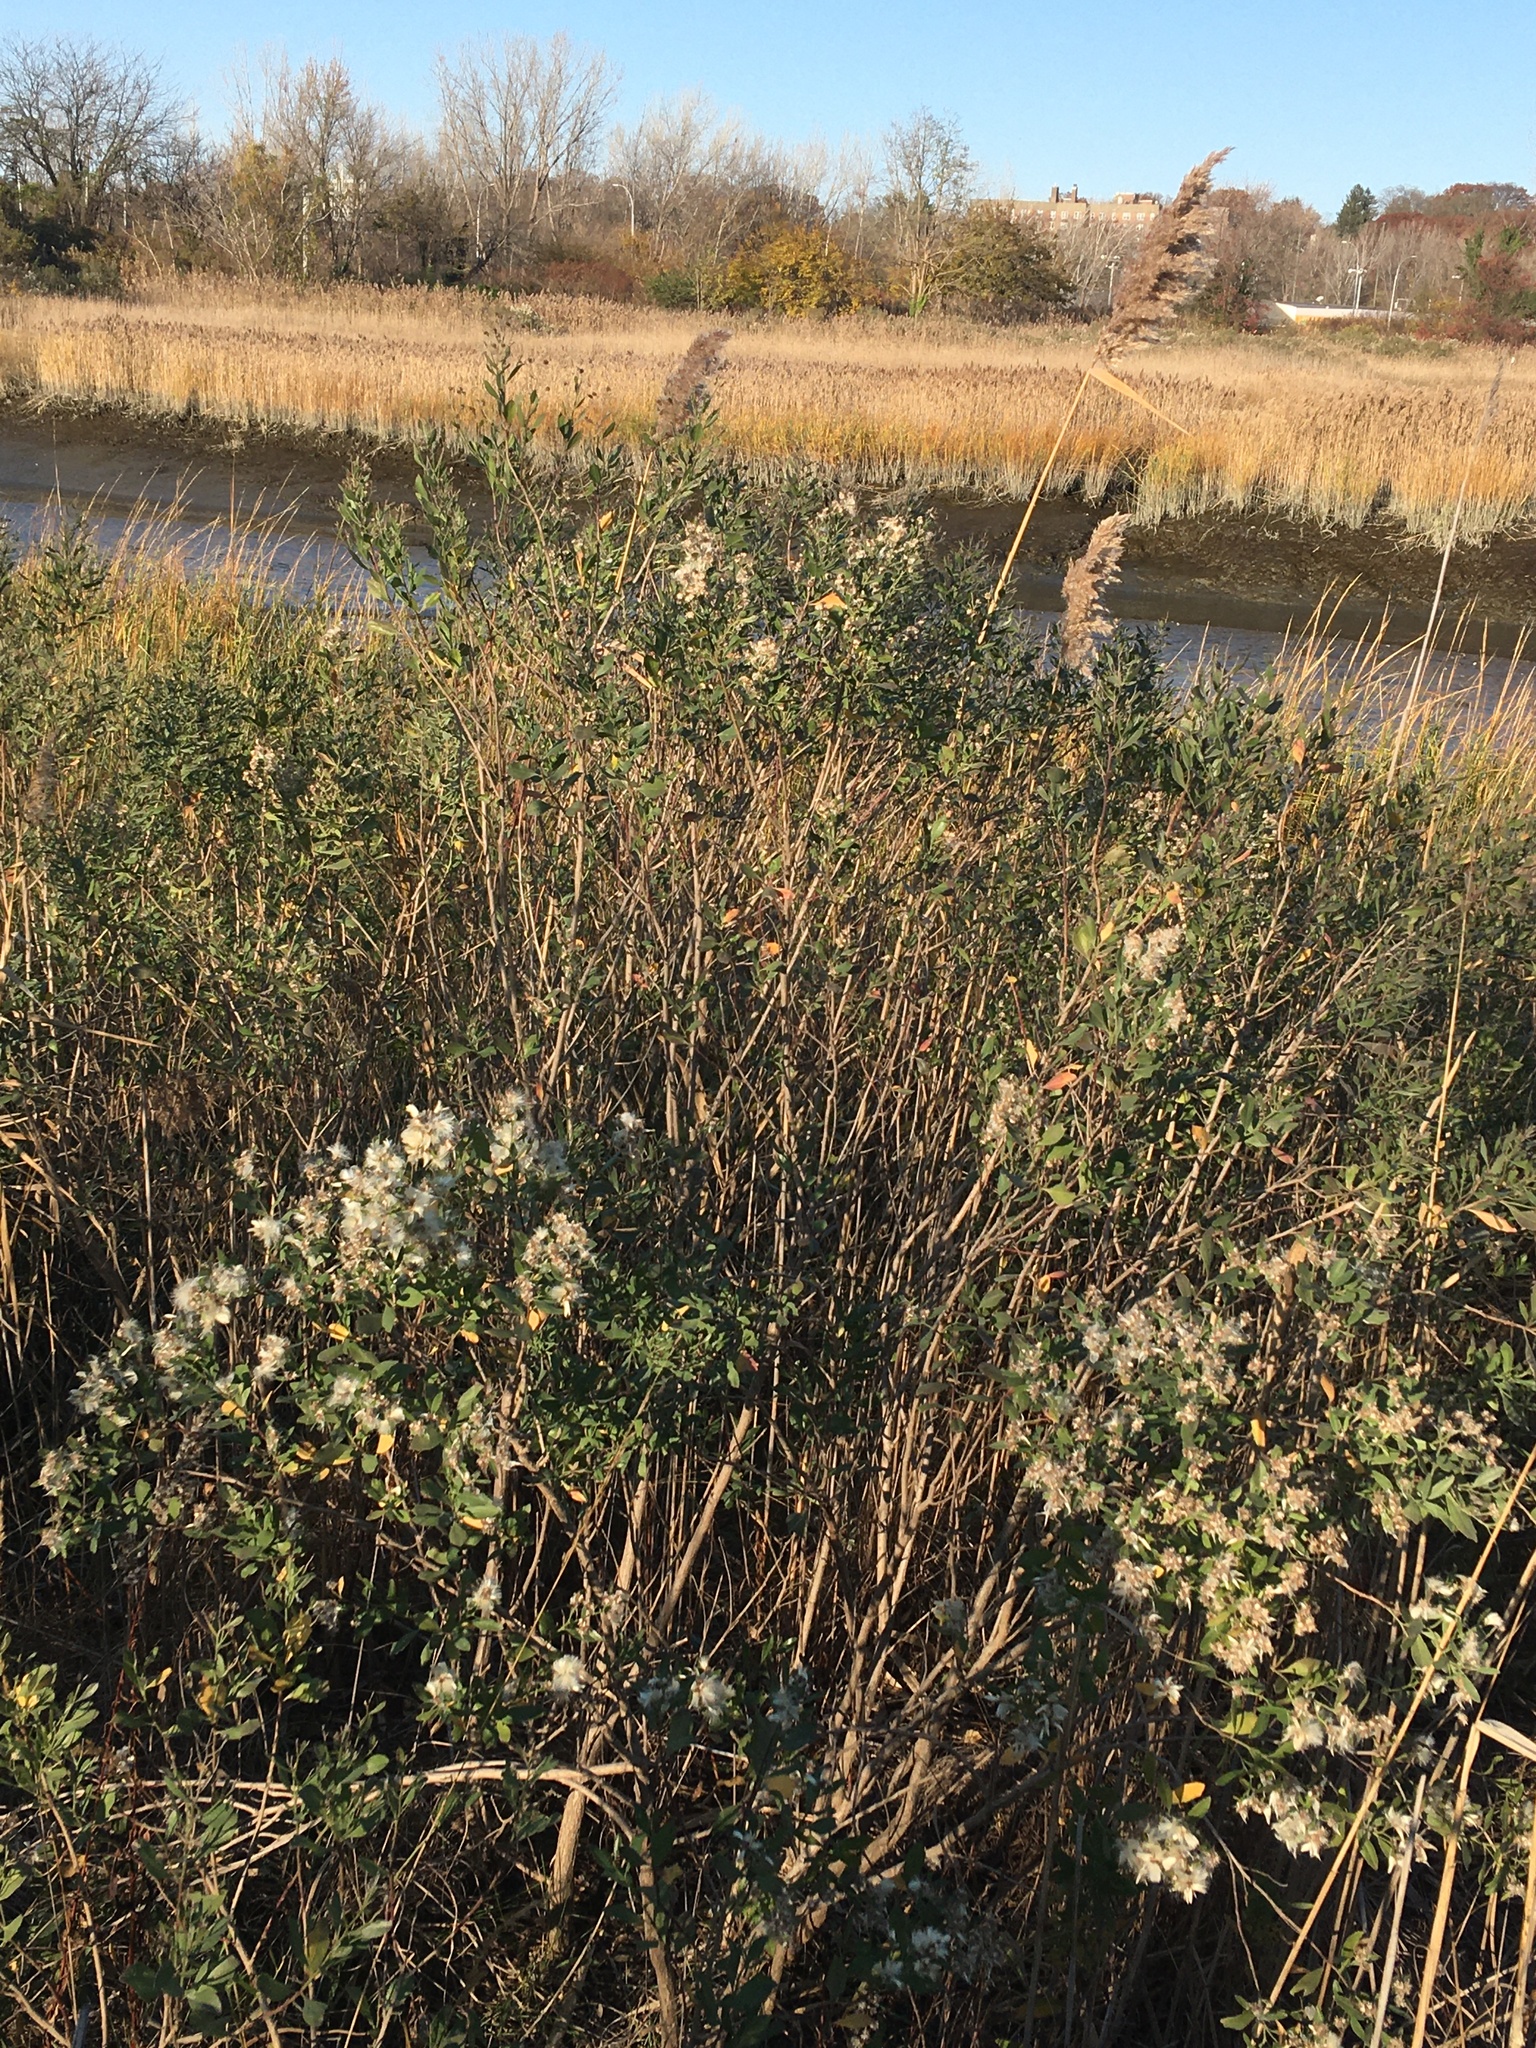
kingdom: Plantae
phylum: Tracheophyta
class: Magnoliopsida
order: Asterales
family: Asteraceae
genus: Baccharis
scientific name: Baccharis halimifolia
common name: Eastern baccharis
